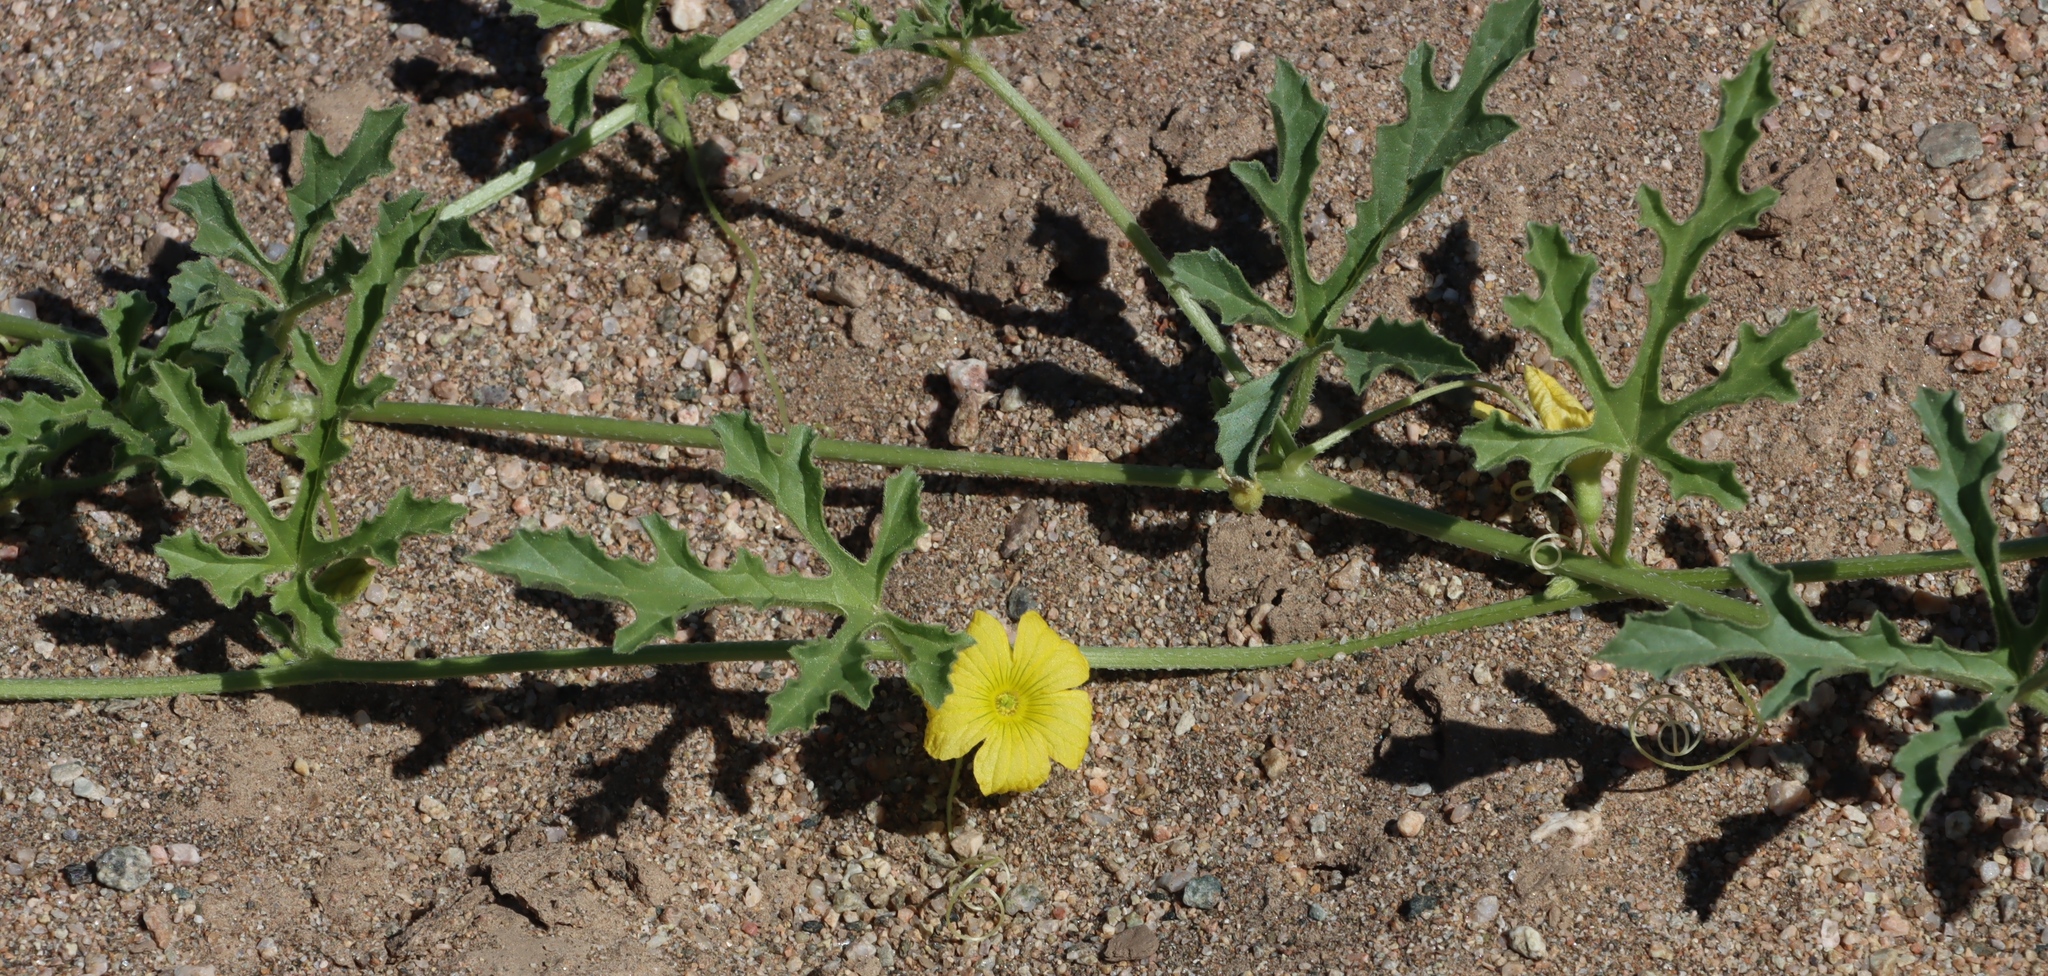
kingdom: Plantae
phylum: Tracheophyta
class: Magnoliopsida
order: Cucurbitales
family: Cucurbitaceae
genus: Cucumis
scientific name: Cucumis africanus
